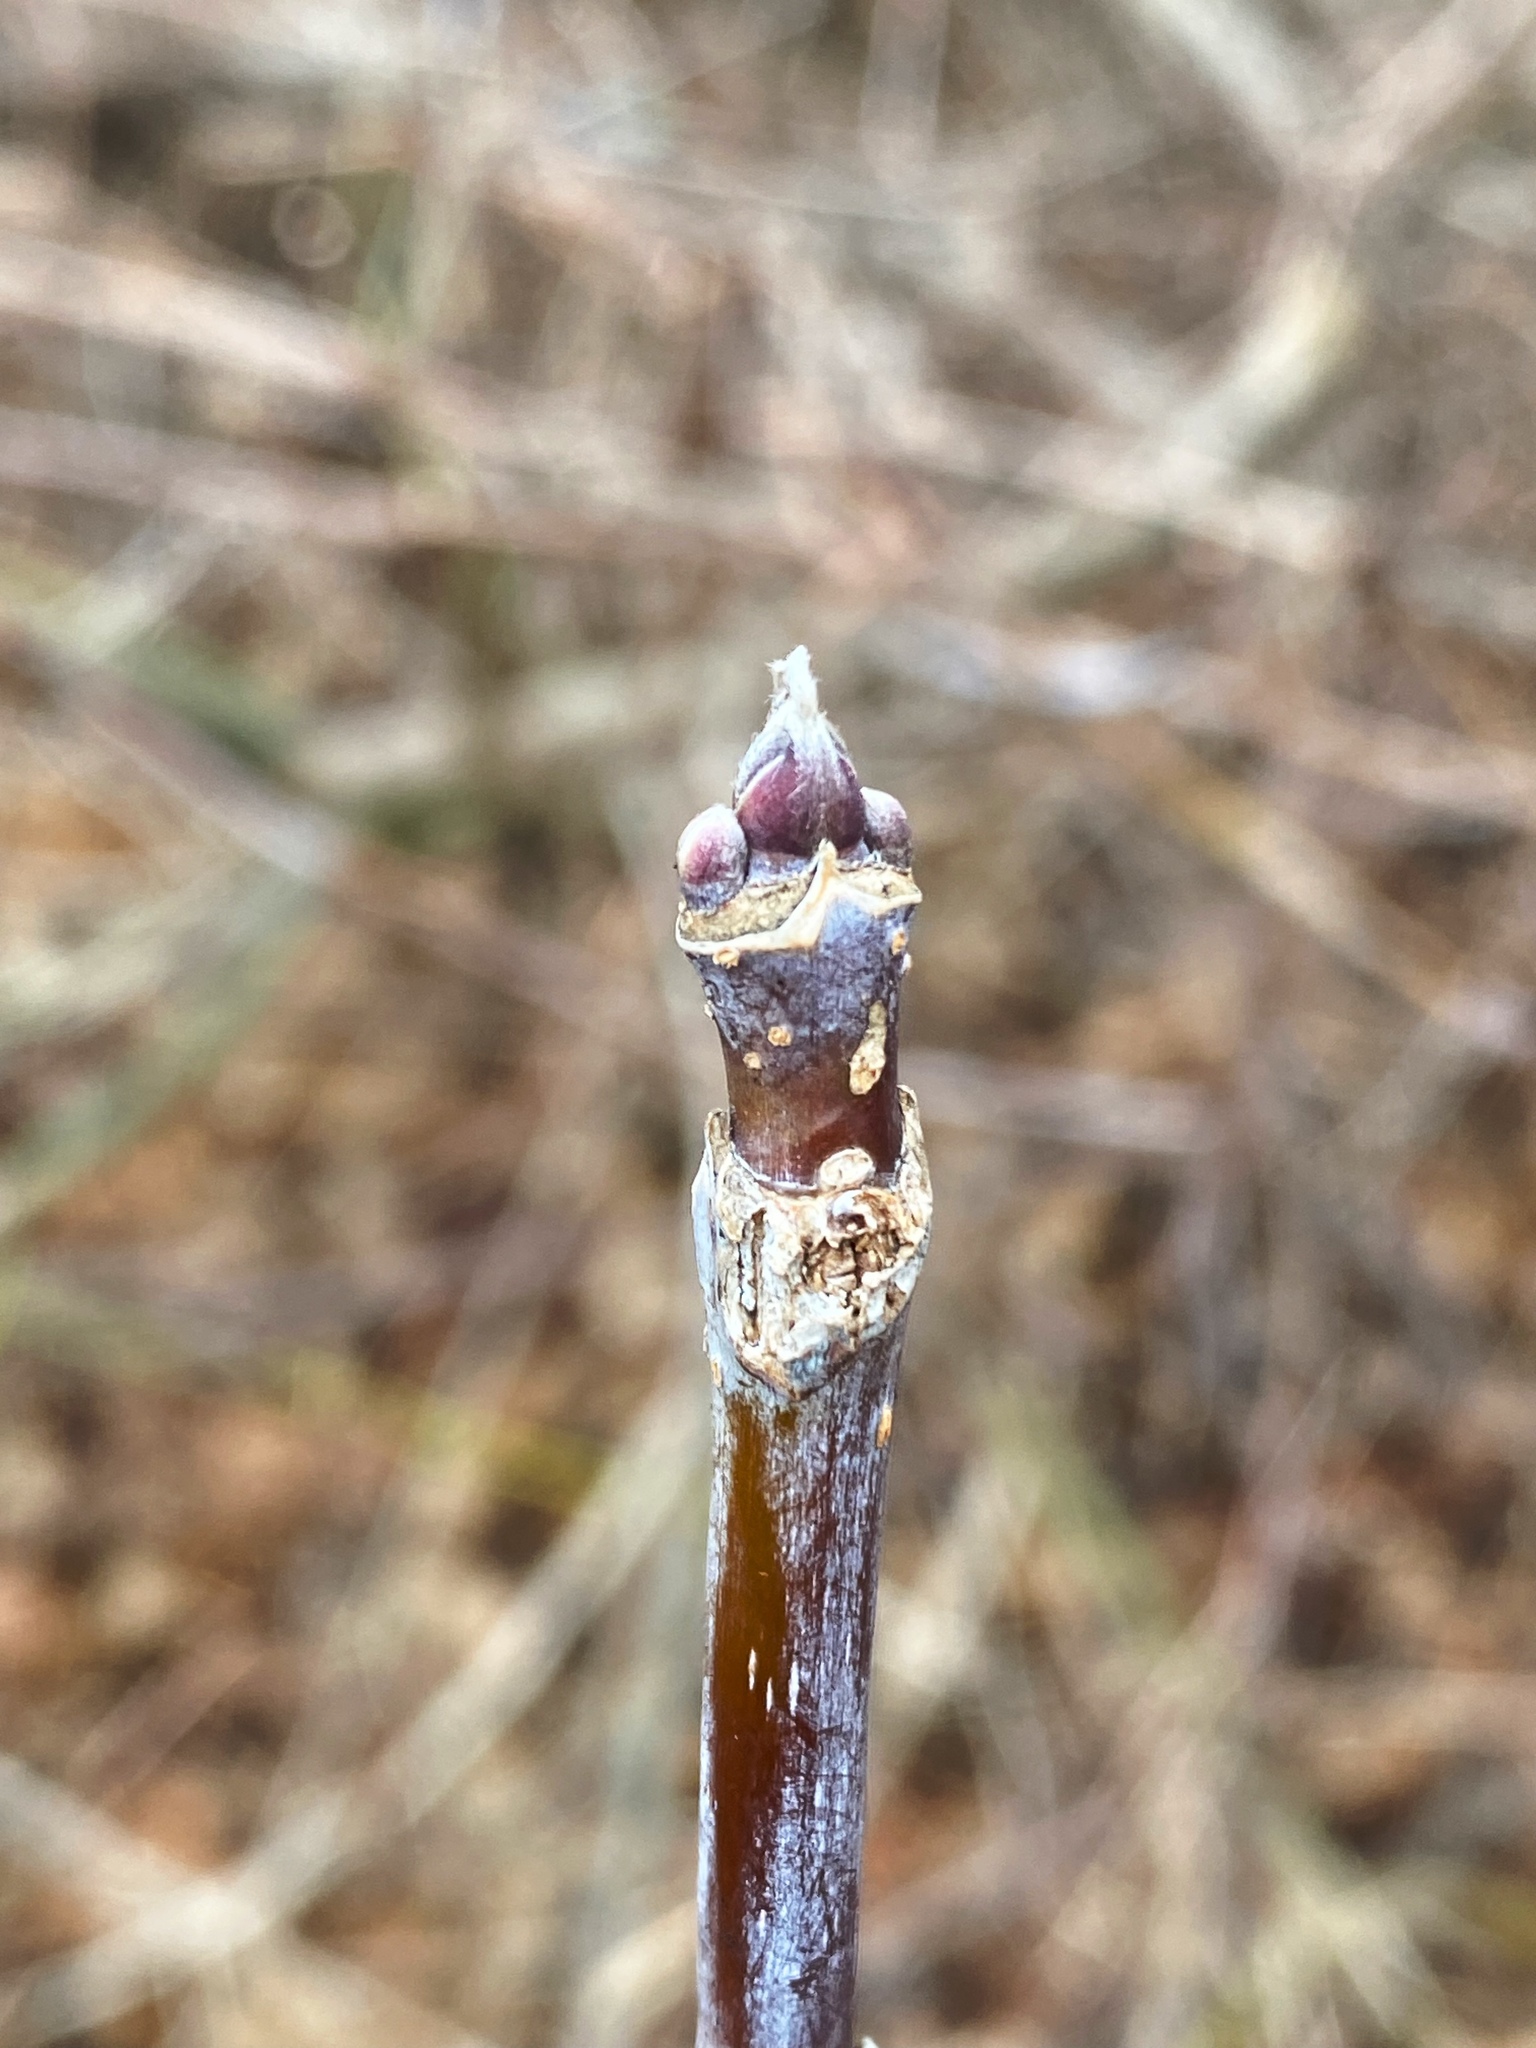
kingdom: Plantae
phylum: Tracheophyta
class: Magnoliopsida
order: Sapindales
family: Sapindaceae
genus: Acer
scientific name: Acer negundo
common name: Ashleaf maple
